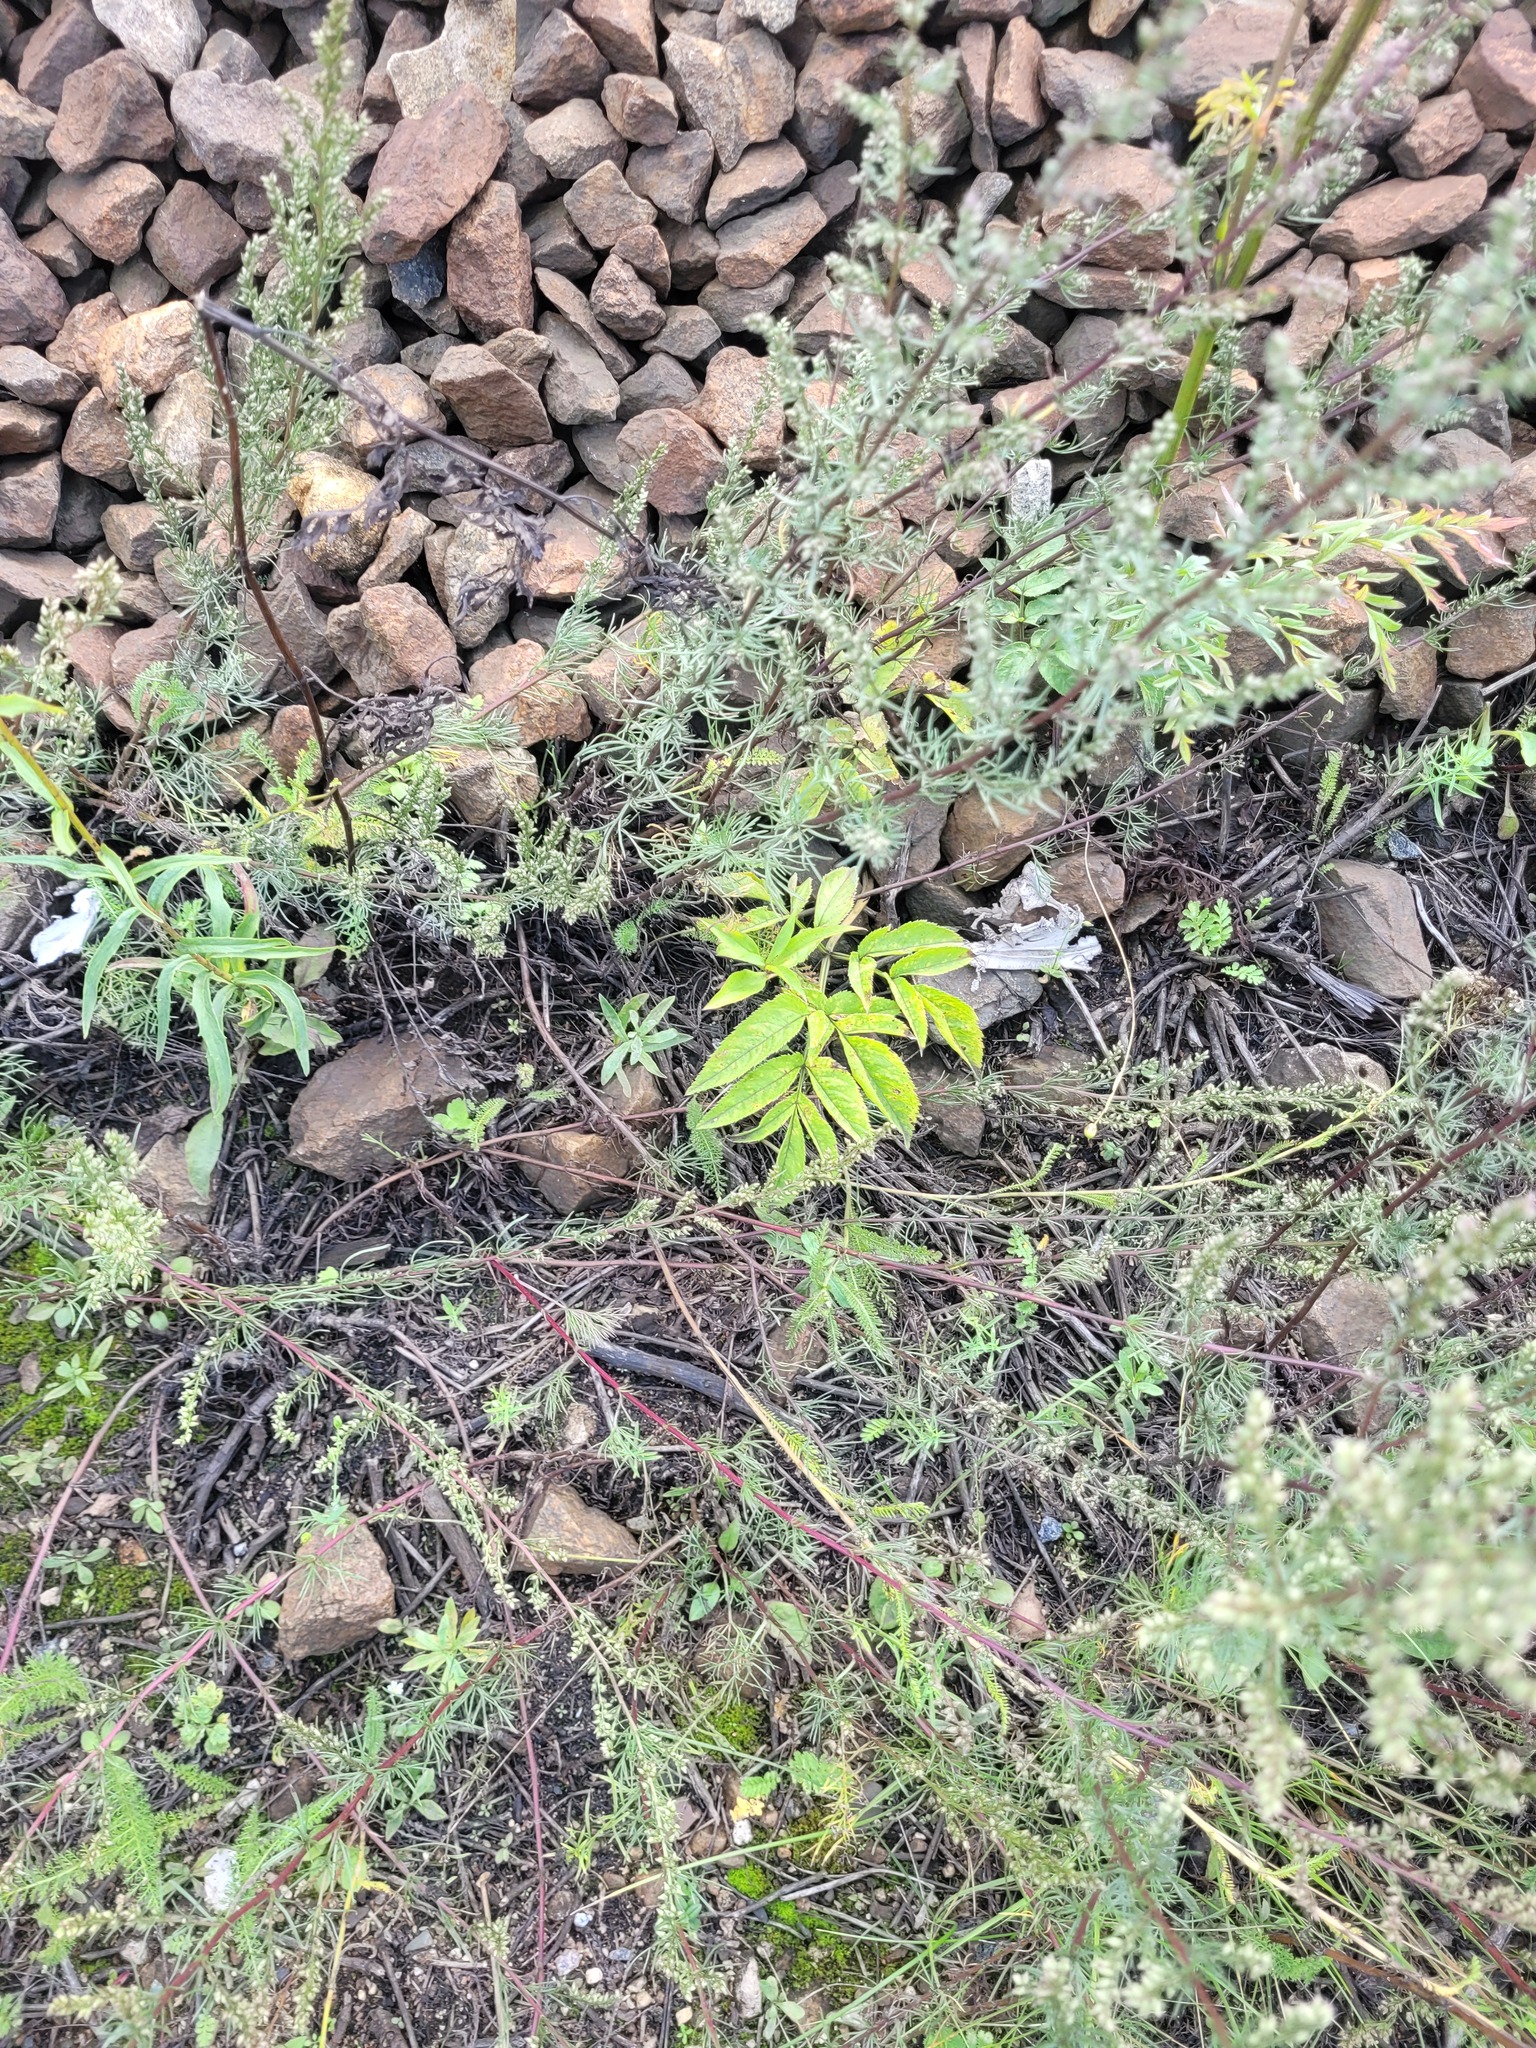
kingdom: Plantae
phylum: Tracheophyta
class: Magnoliopsida
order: Apiales
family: Apiaceae
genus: Angelica
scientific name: Angelica sylvestris
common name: Wild angelica
